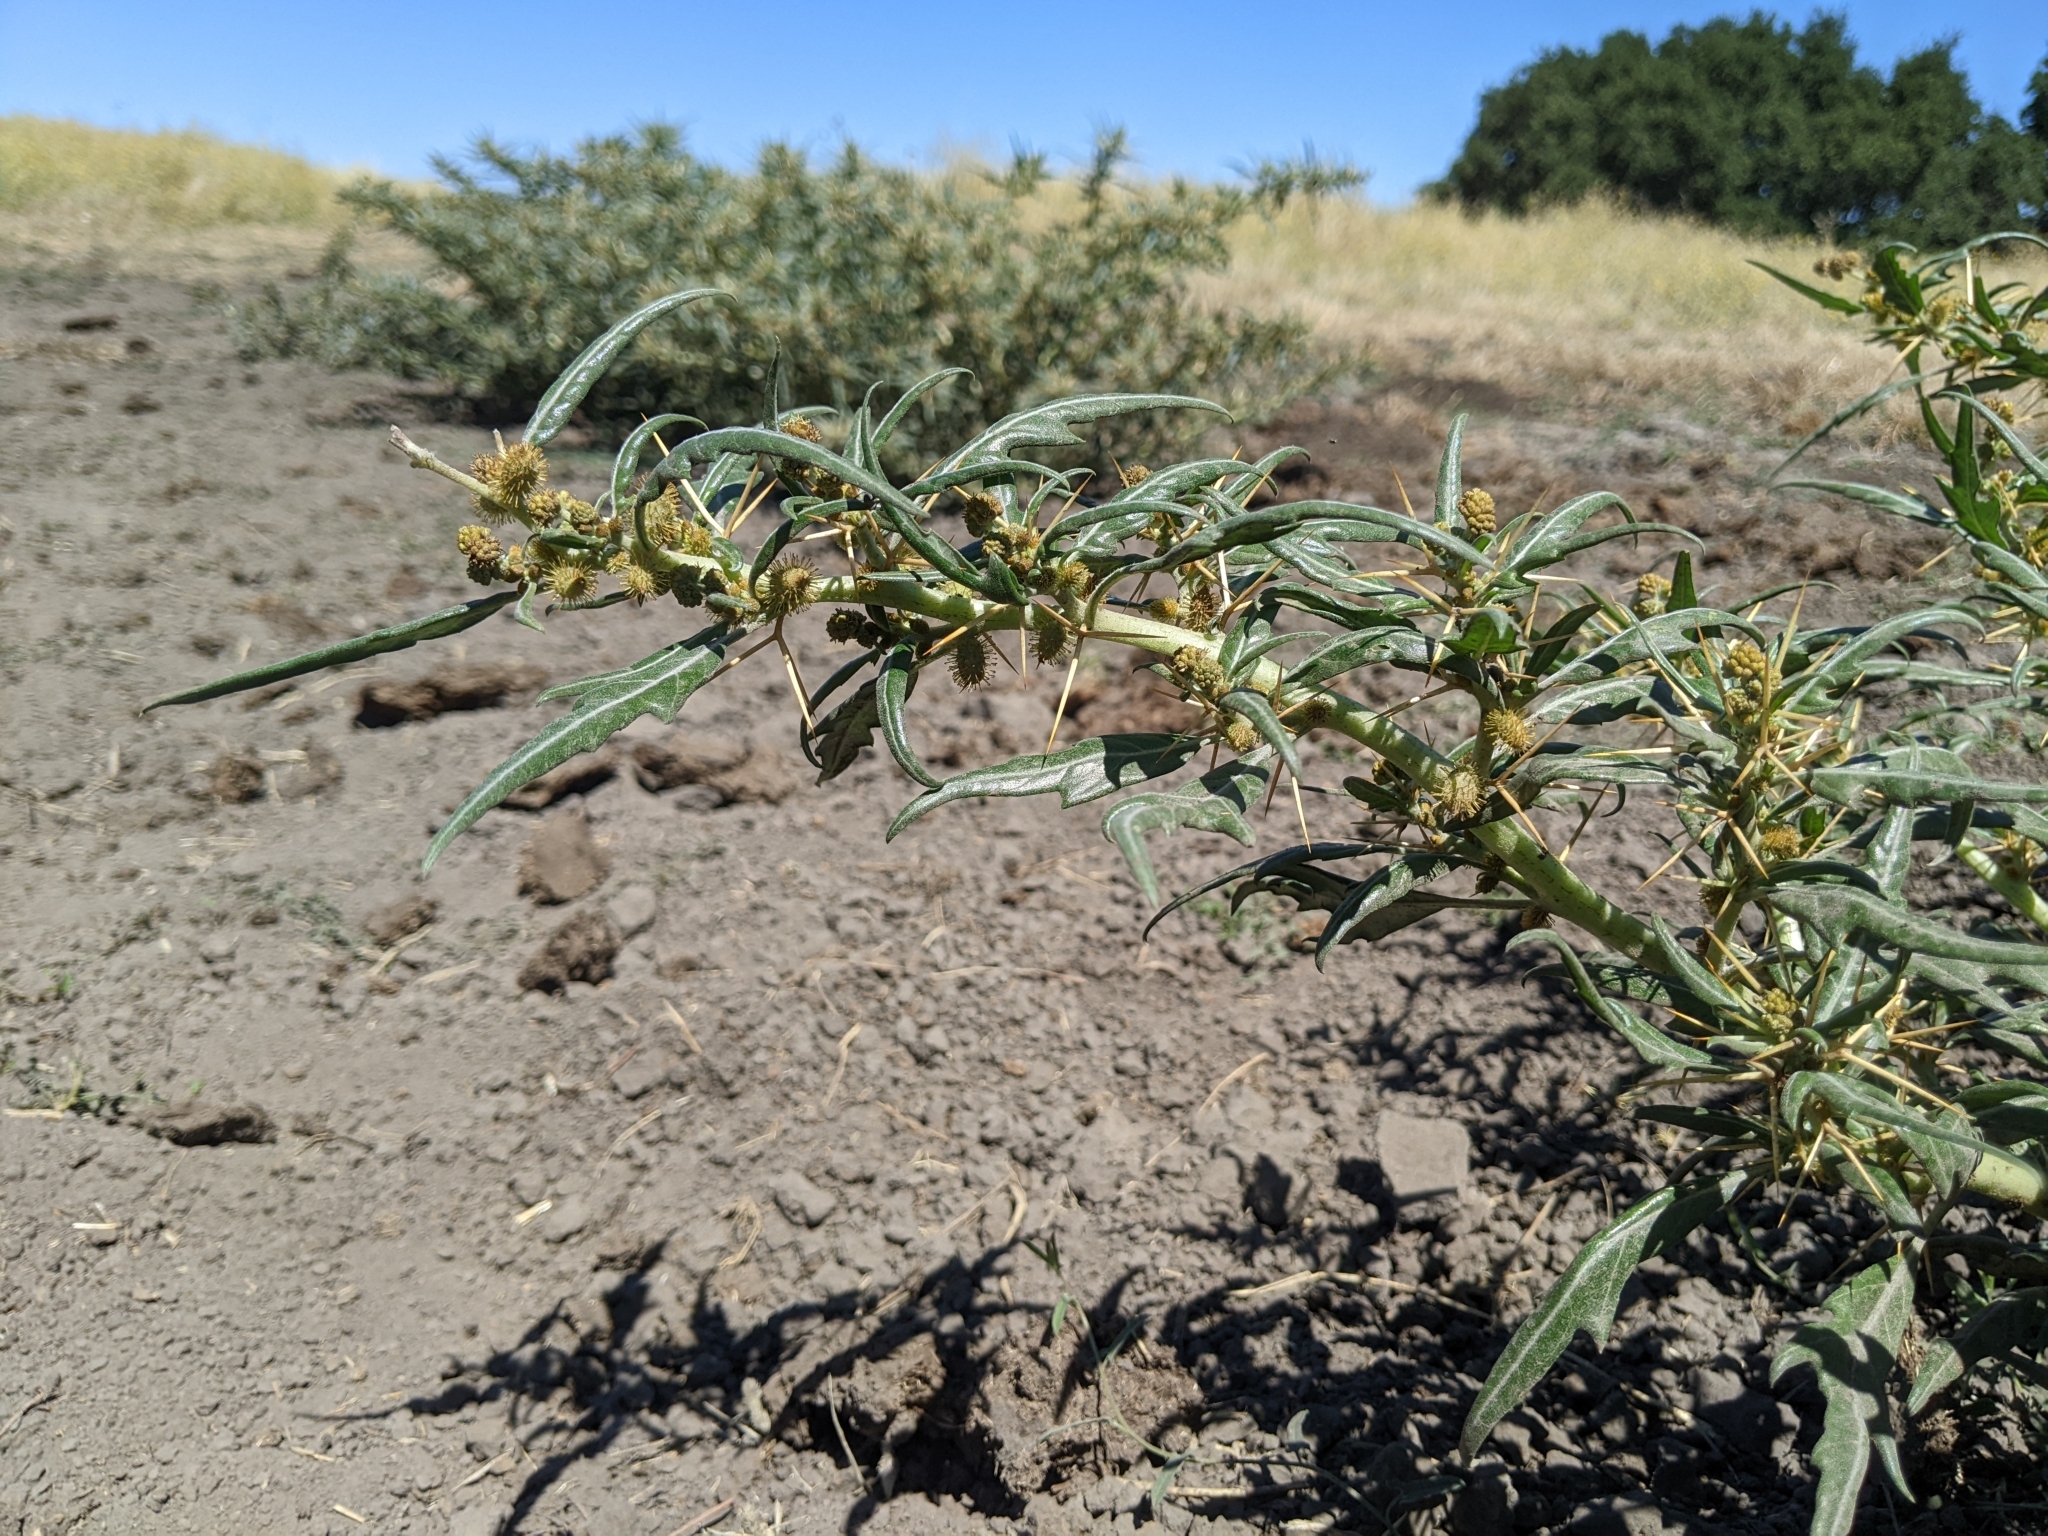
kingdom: Plantae
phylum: Tracheophyta
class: Magnoliopsida
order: Asterales
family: Asteraceae
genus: Xanthium
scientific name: Xanthium spinosum
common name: Spiny cocklebur
